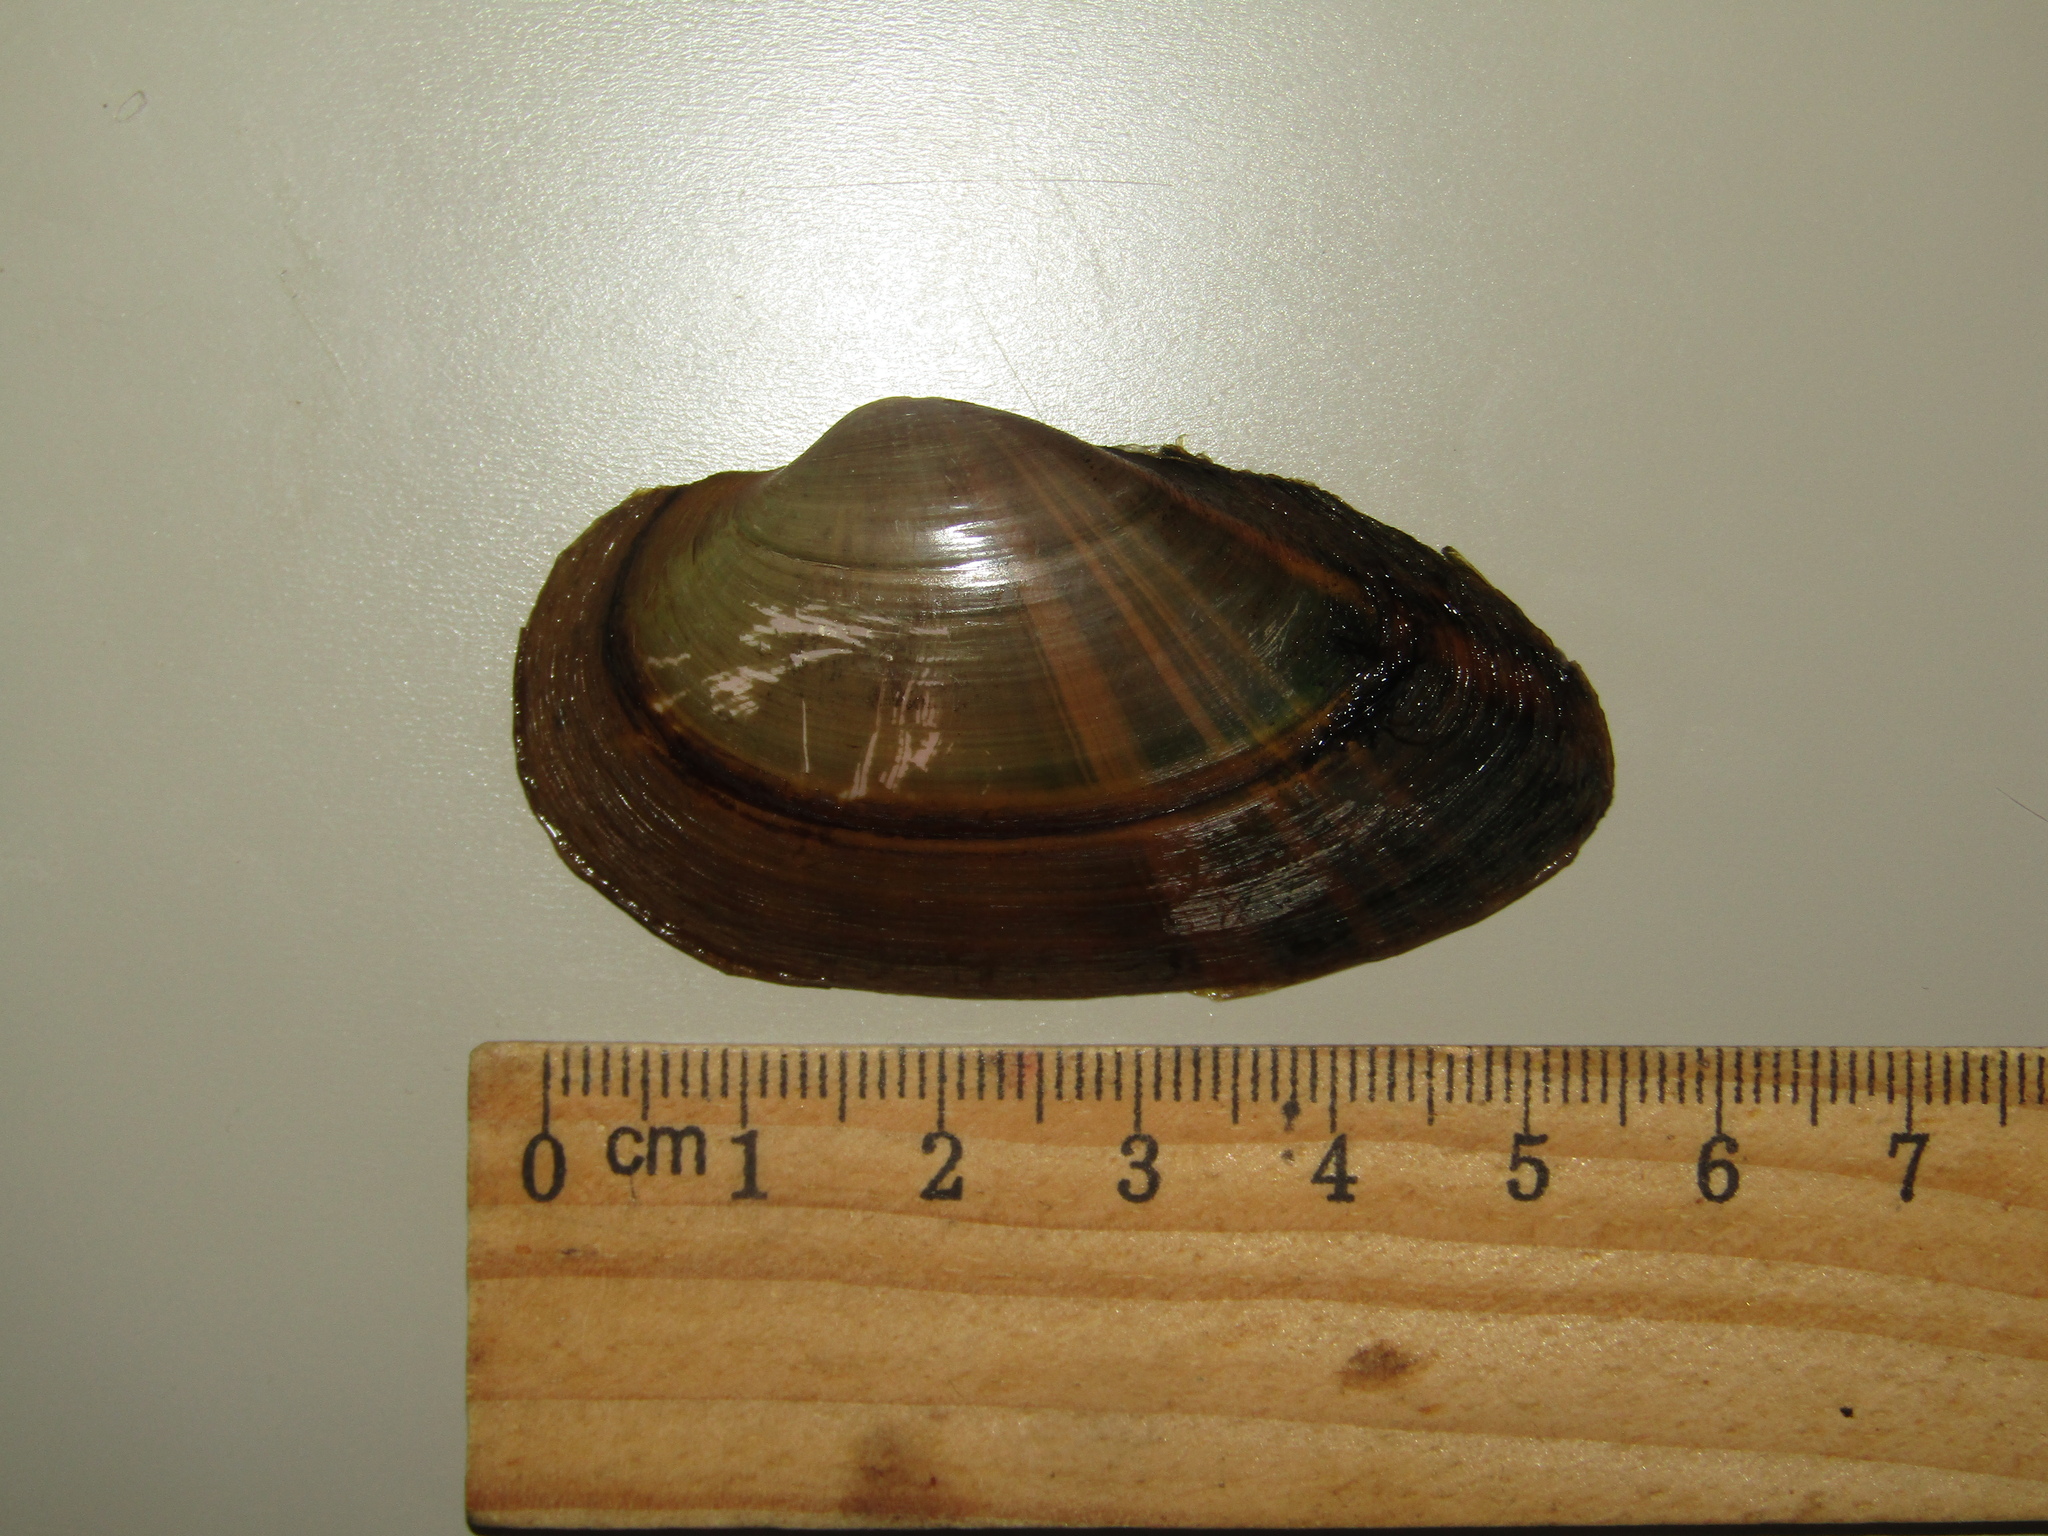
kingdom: Animalia
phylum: Mollusca
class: Bivalvia
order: Unionida
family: Unionidae
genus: Unio
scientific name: Unio tumidus
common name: Swollen river mussel
